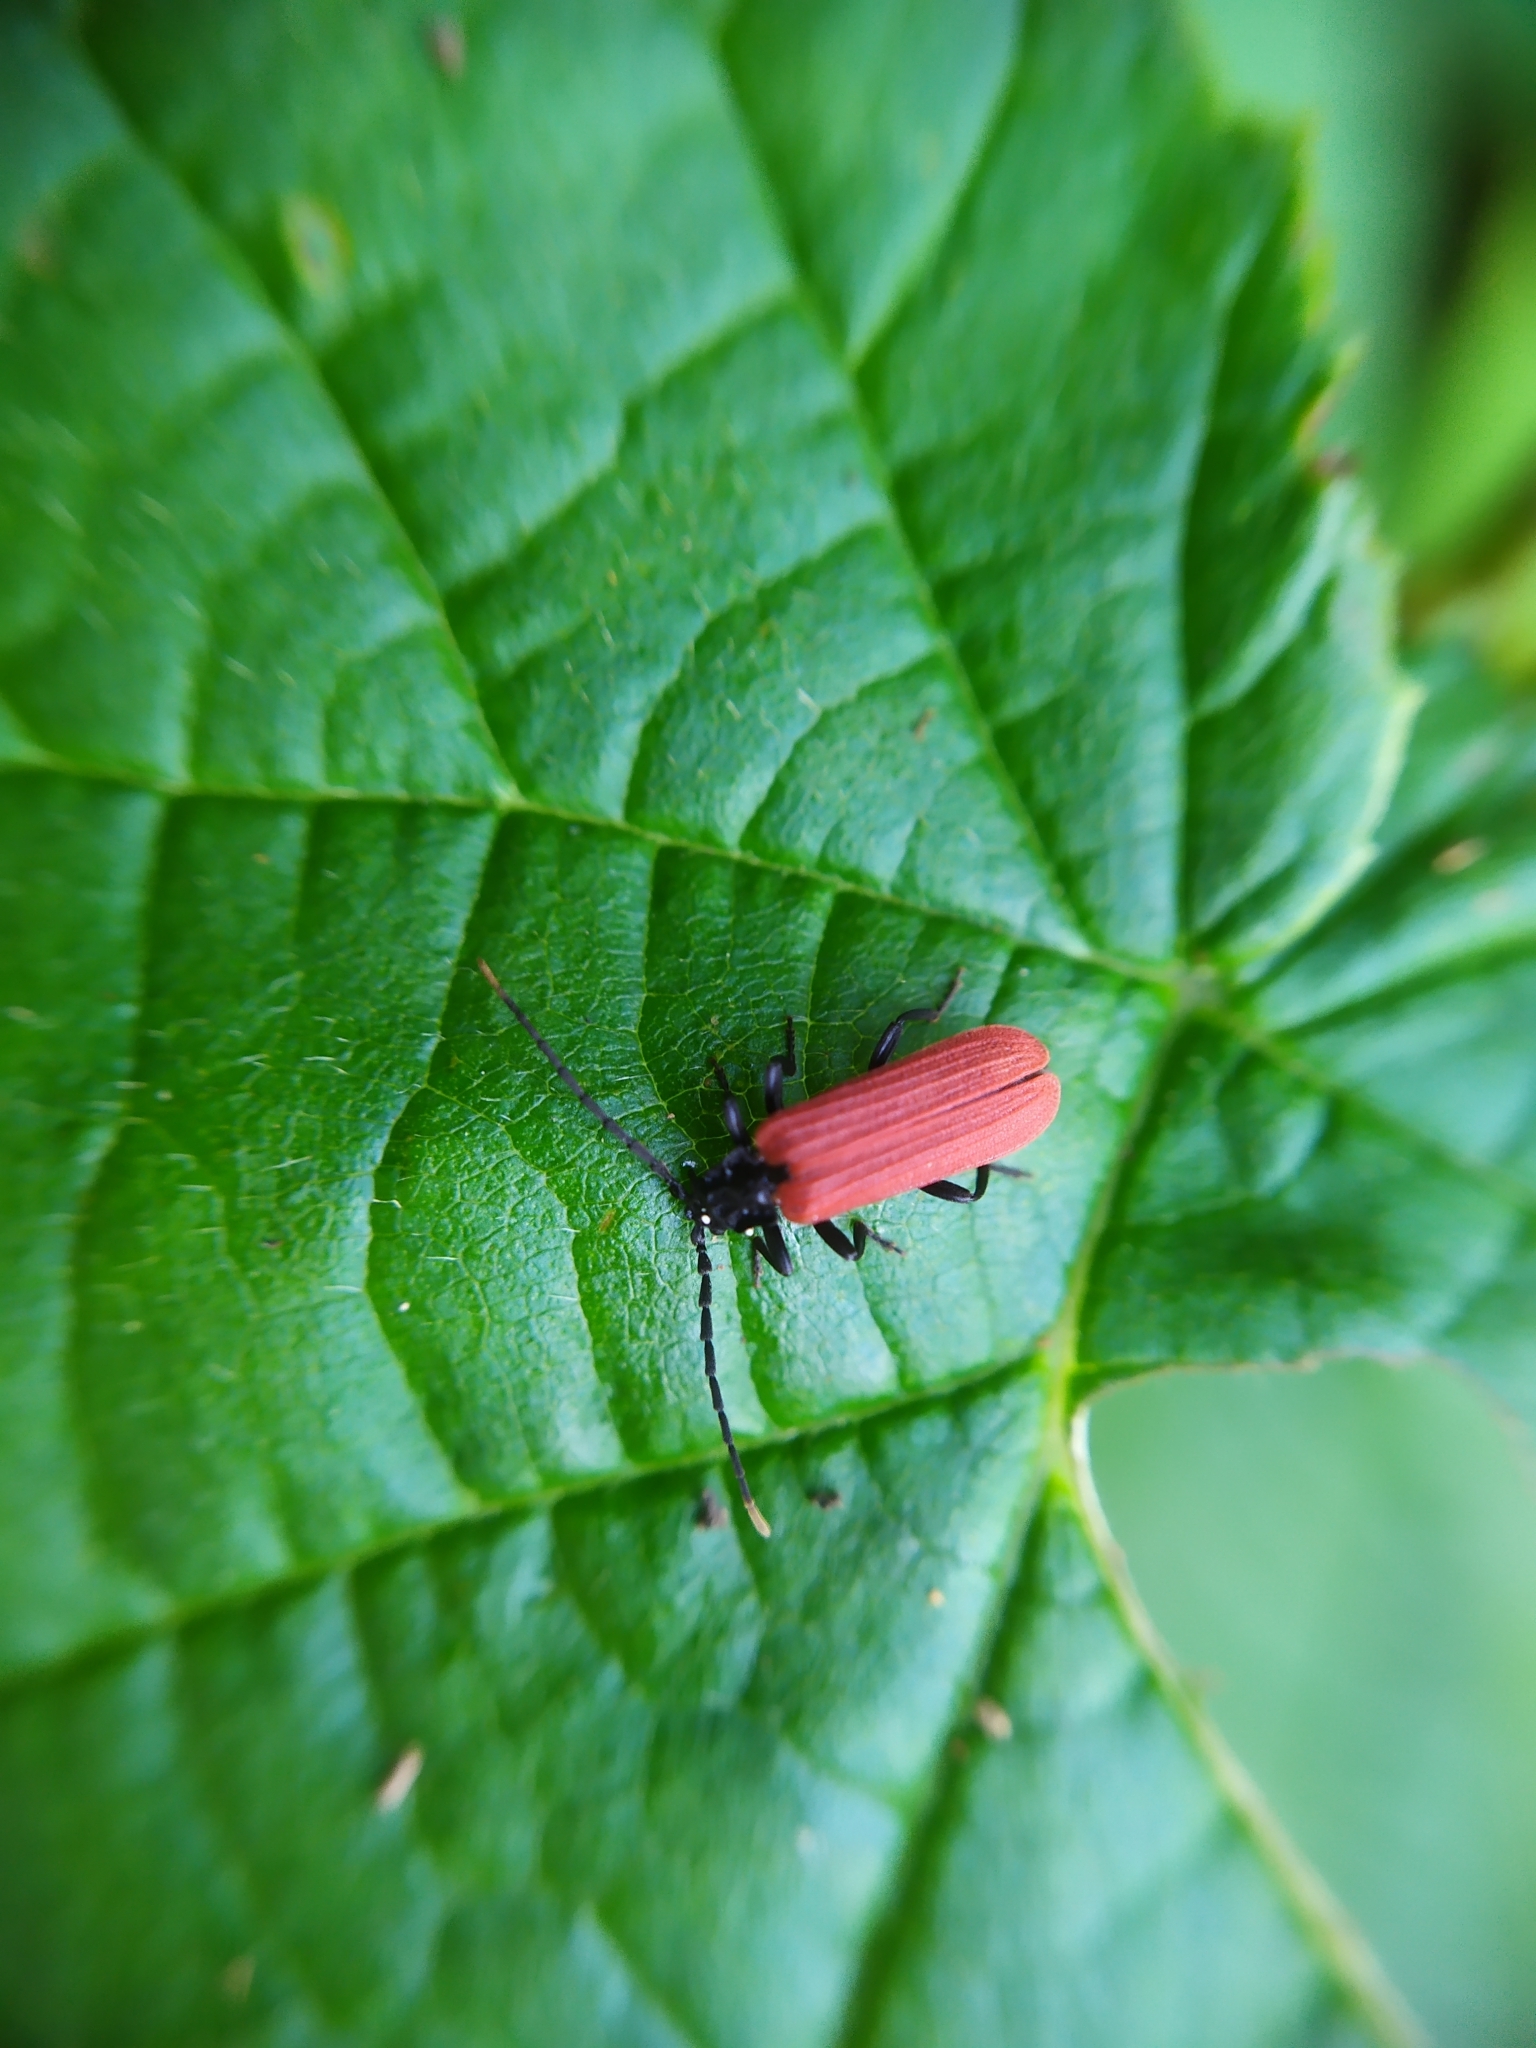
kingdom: Animalia
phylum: Arthropoda
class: Insecta
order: Coleoptera
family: Lycidae
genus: Platycis
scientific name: Platycis minutus
